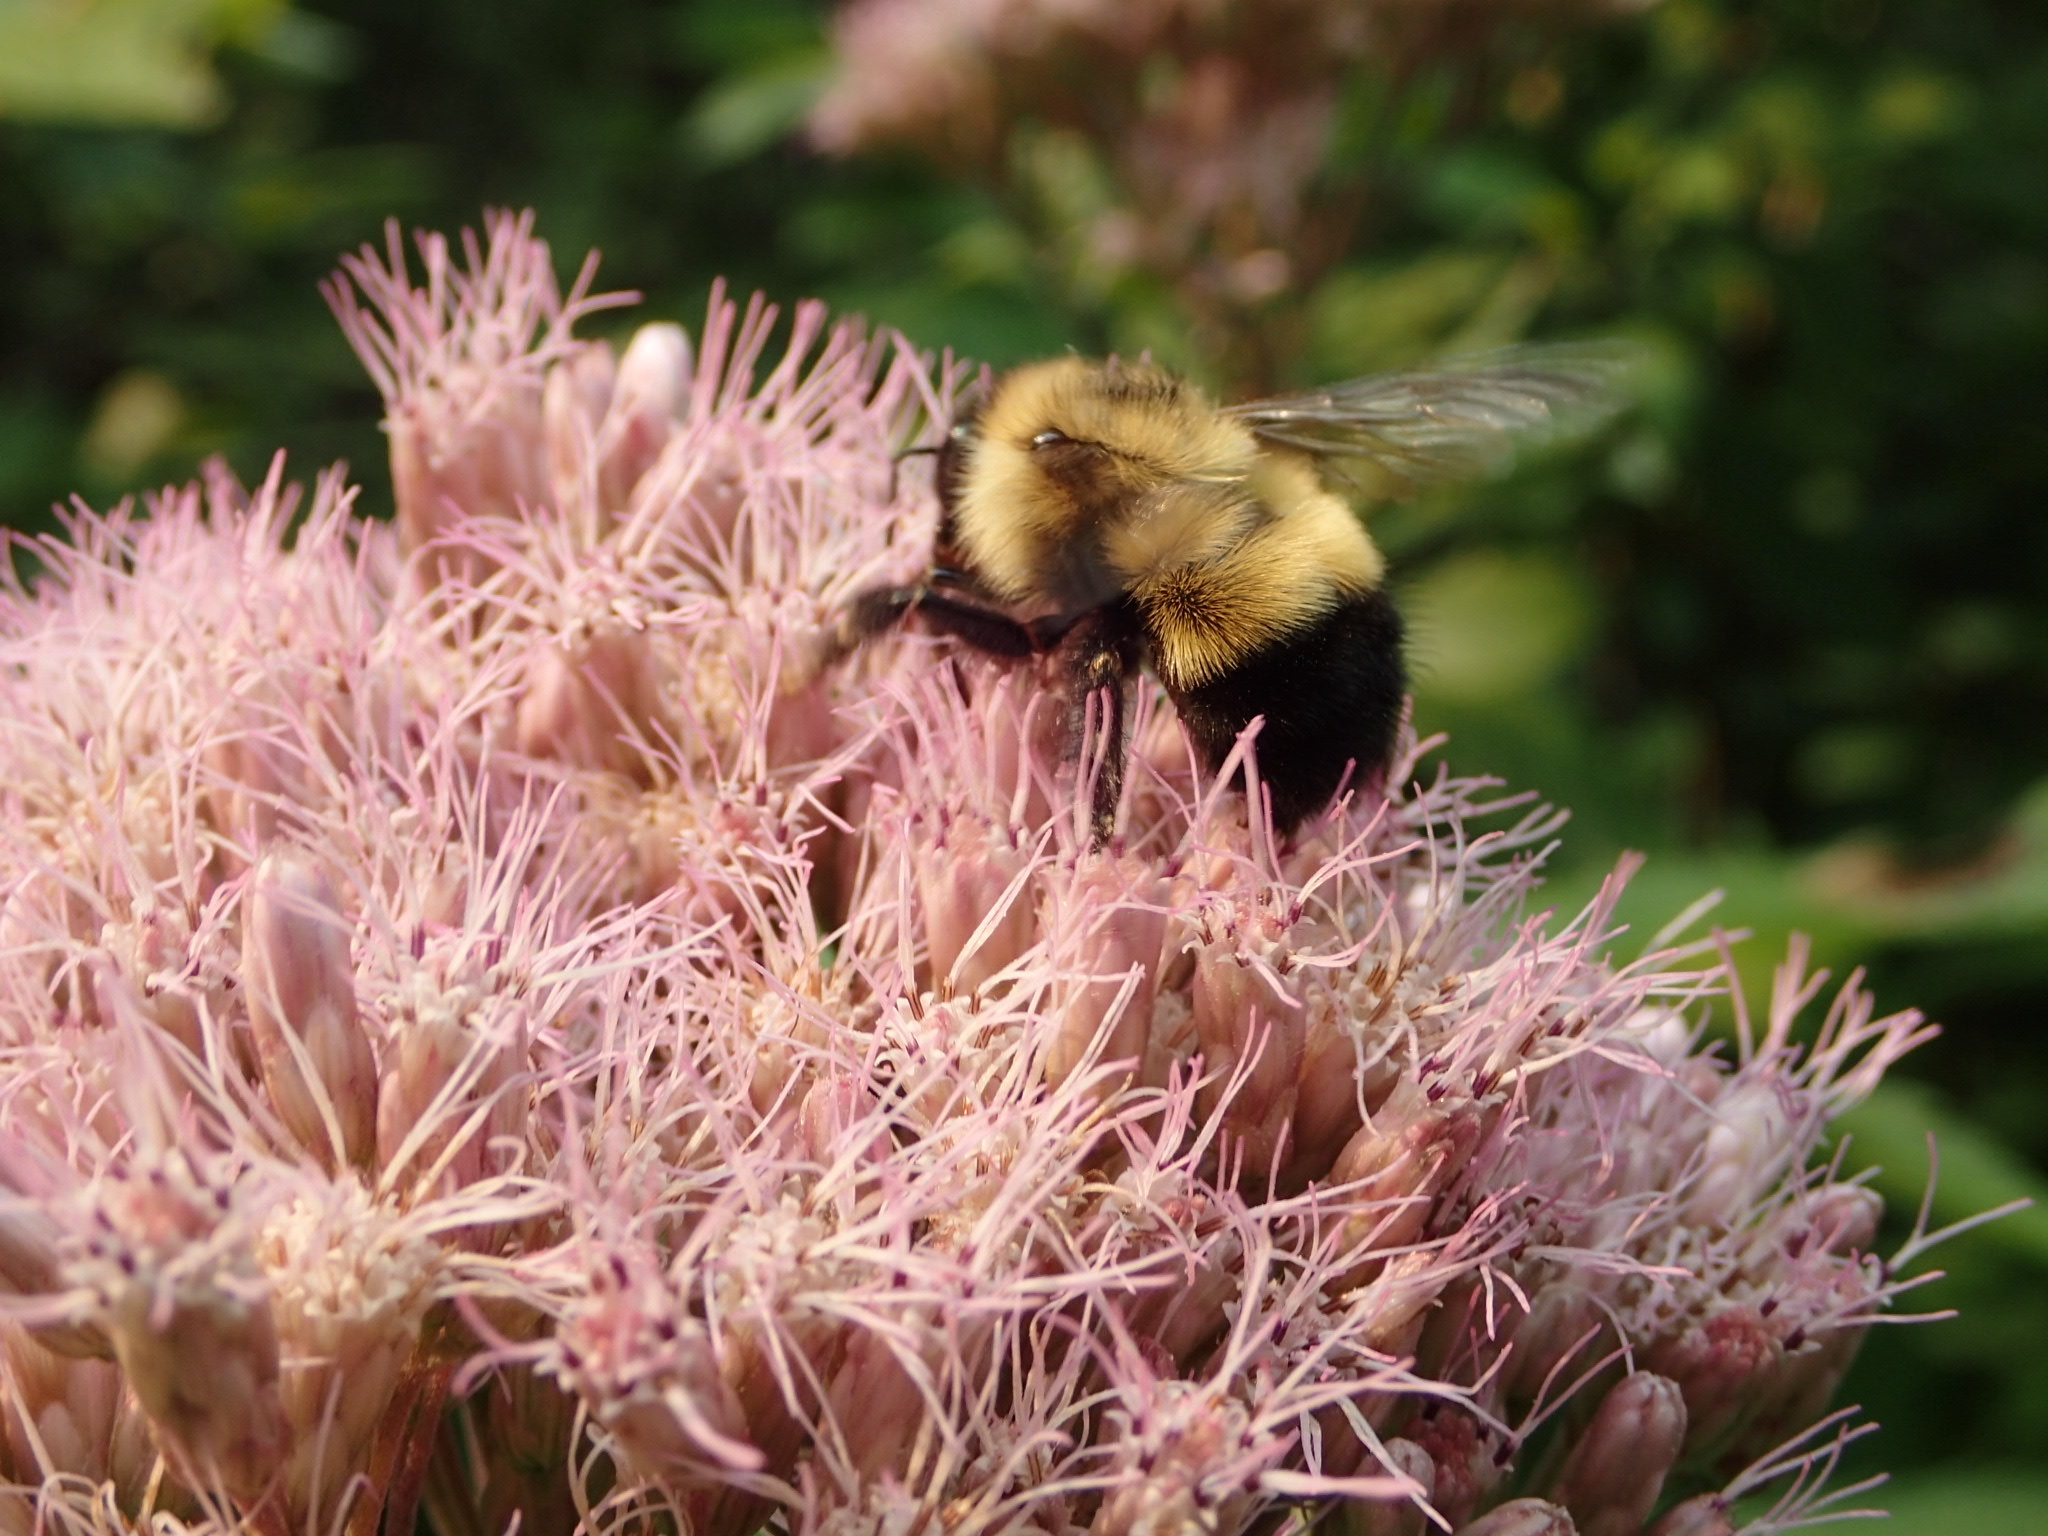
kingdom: Animalia
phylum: Arthropoda
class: Insecta
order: Hymenoptera
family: Apidae
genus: Pyrobombus
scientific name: Pyrobombus
